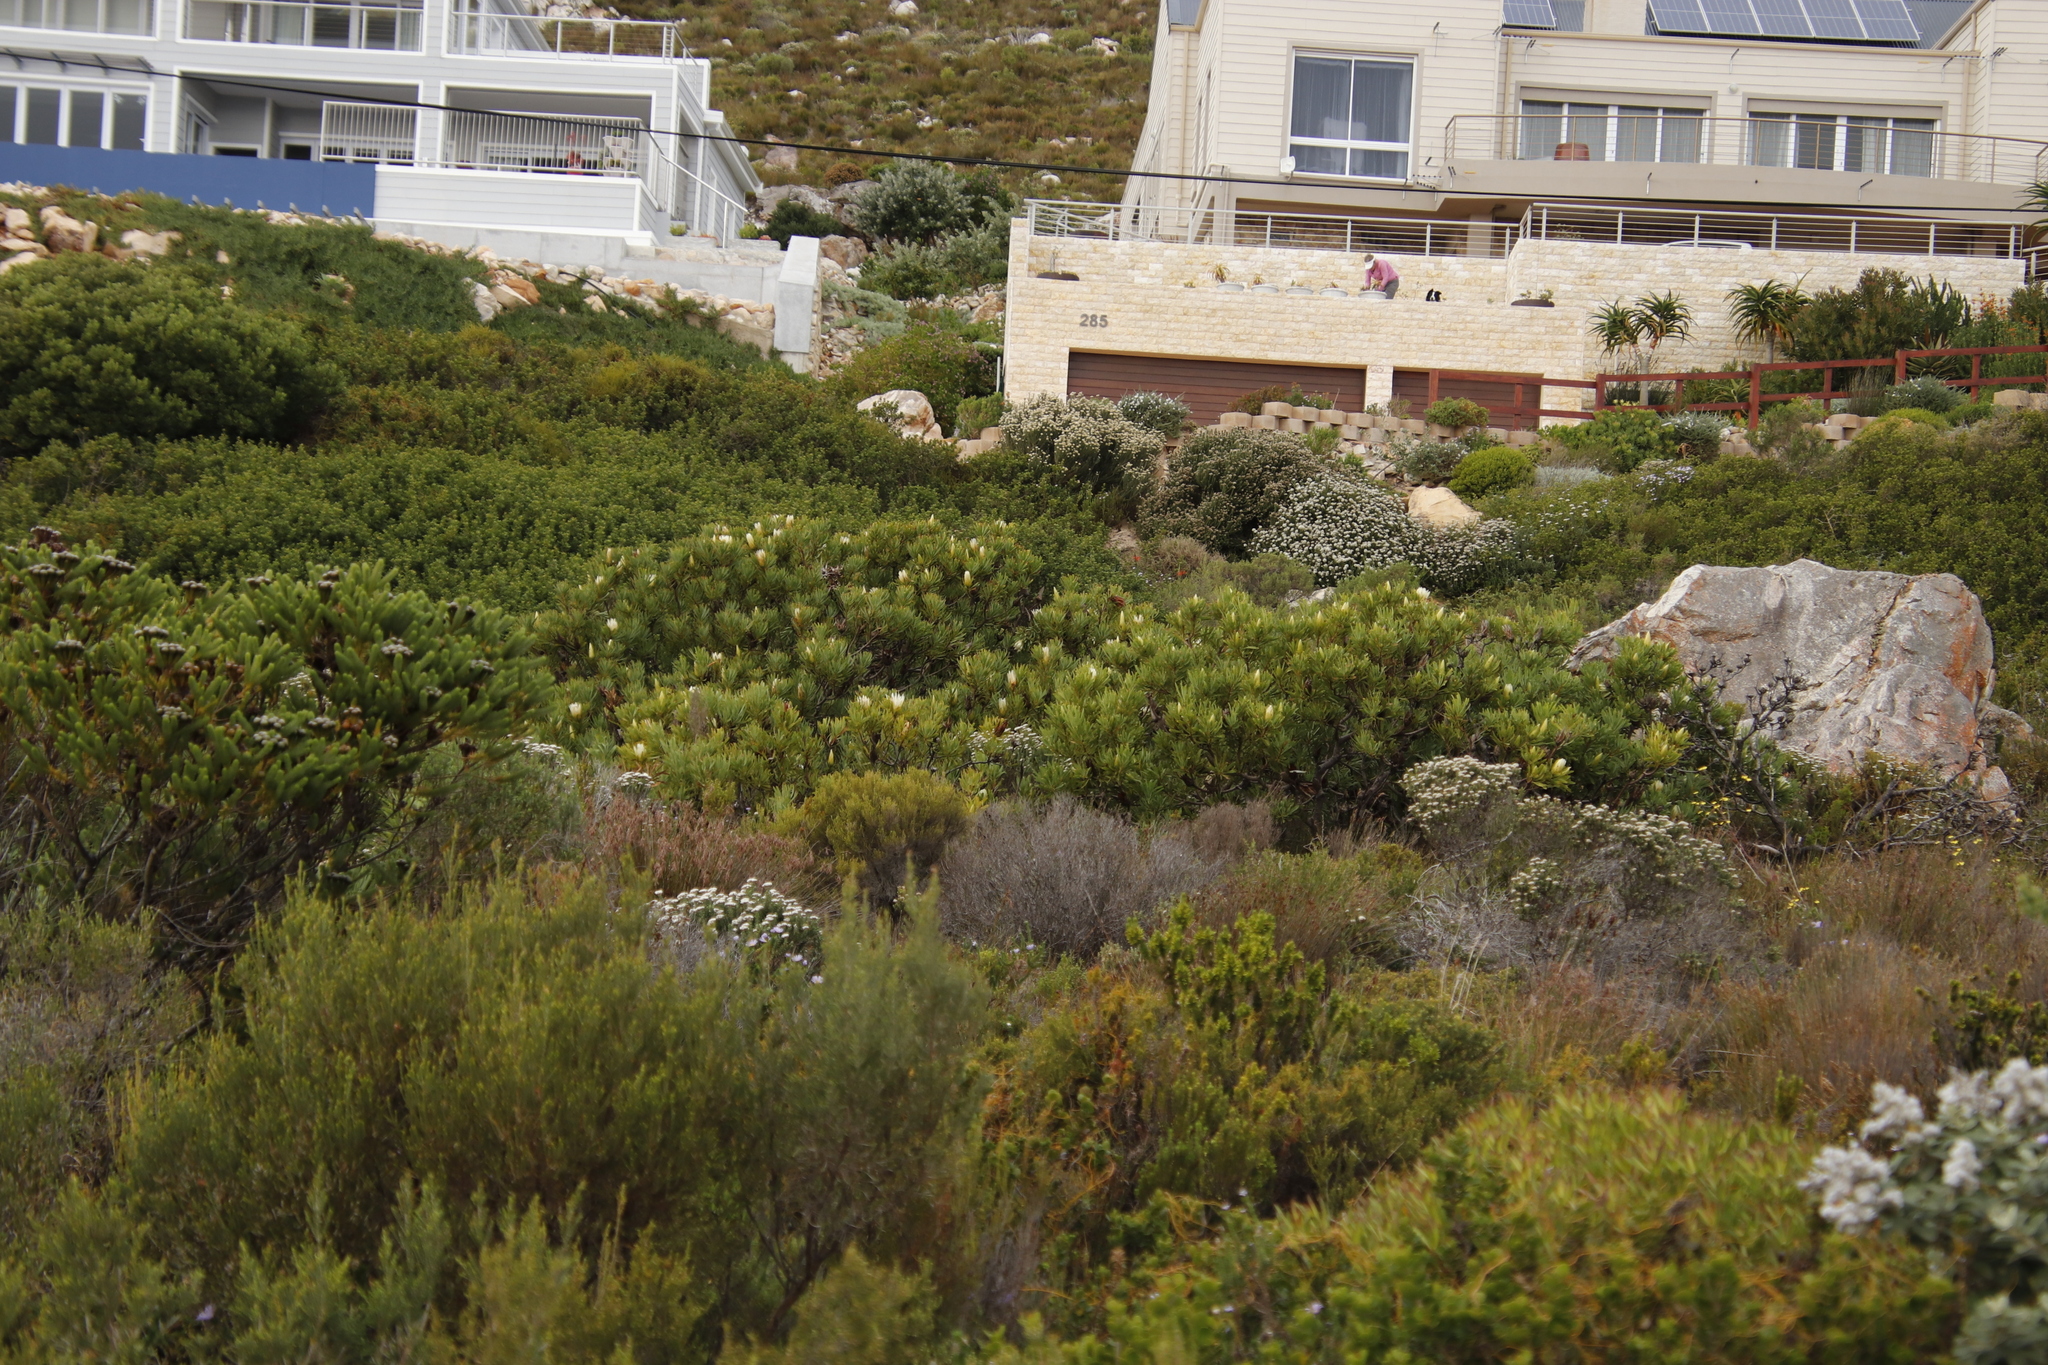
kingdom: Plantae
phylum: Tracheophyta
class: Magnoliopsida
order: Proteales
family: Proteaceae
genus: Protea
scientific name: Protea repens
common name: Sugarbush
